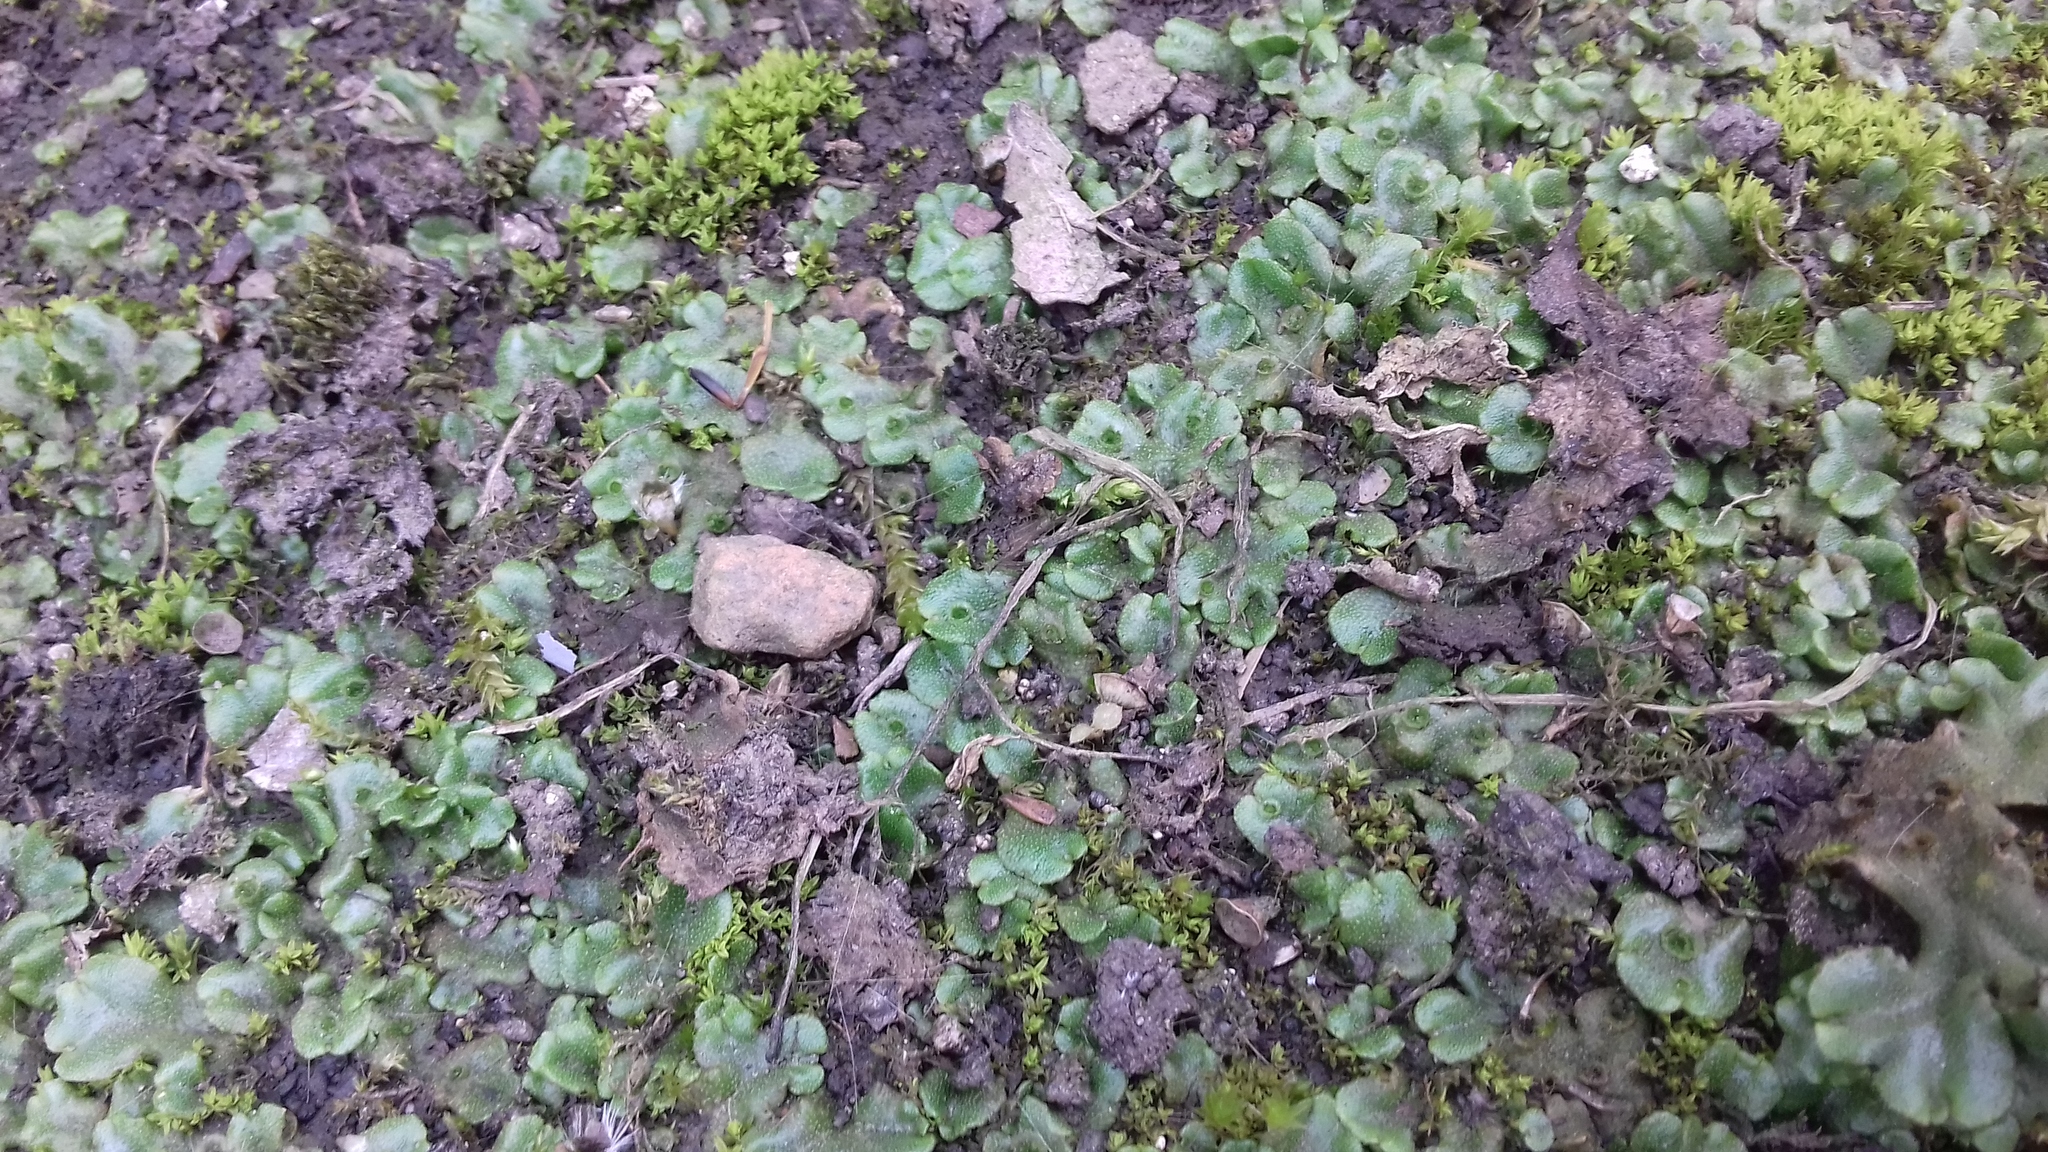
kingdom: Plantae
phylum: Marchantiophyta
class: Marchantiopsida
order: Marchantiales
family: Marchantiaceae
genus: Marchantia
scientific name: Marchantia polymorpha
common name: Common liverwort
